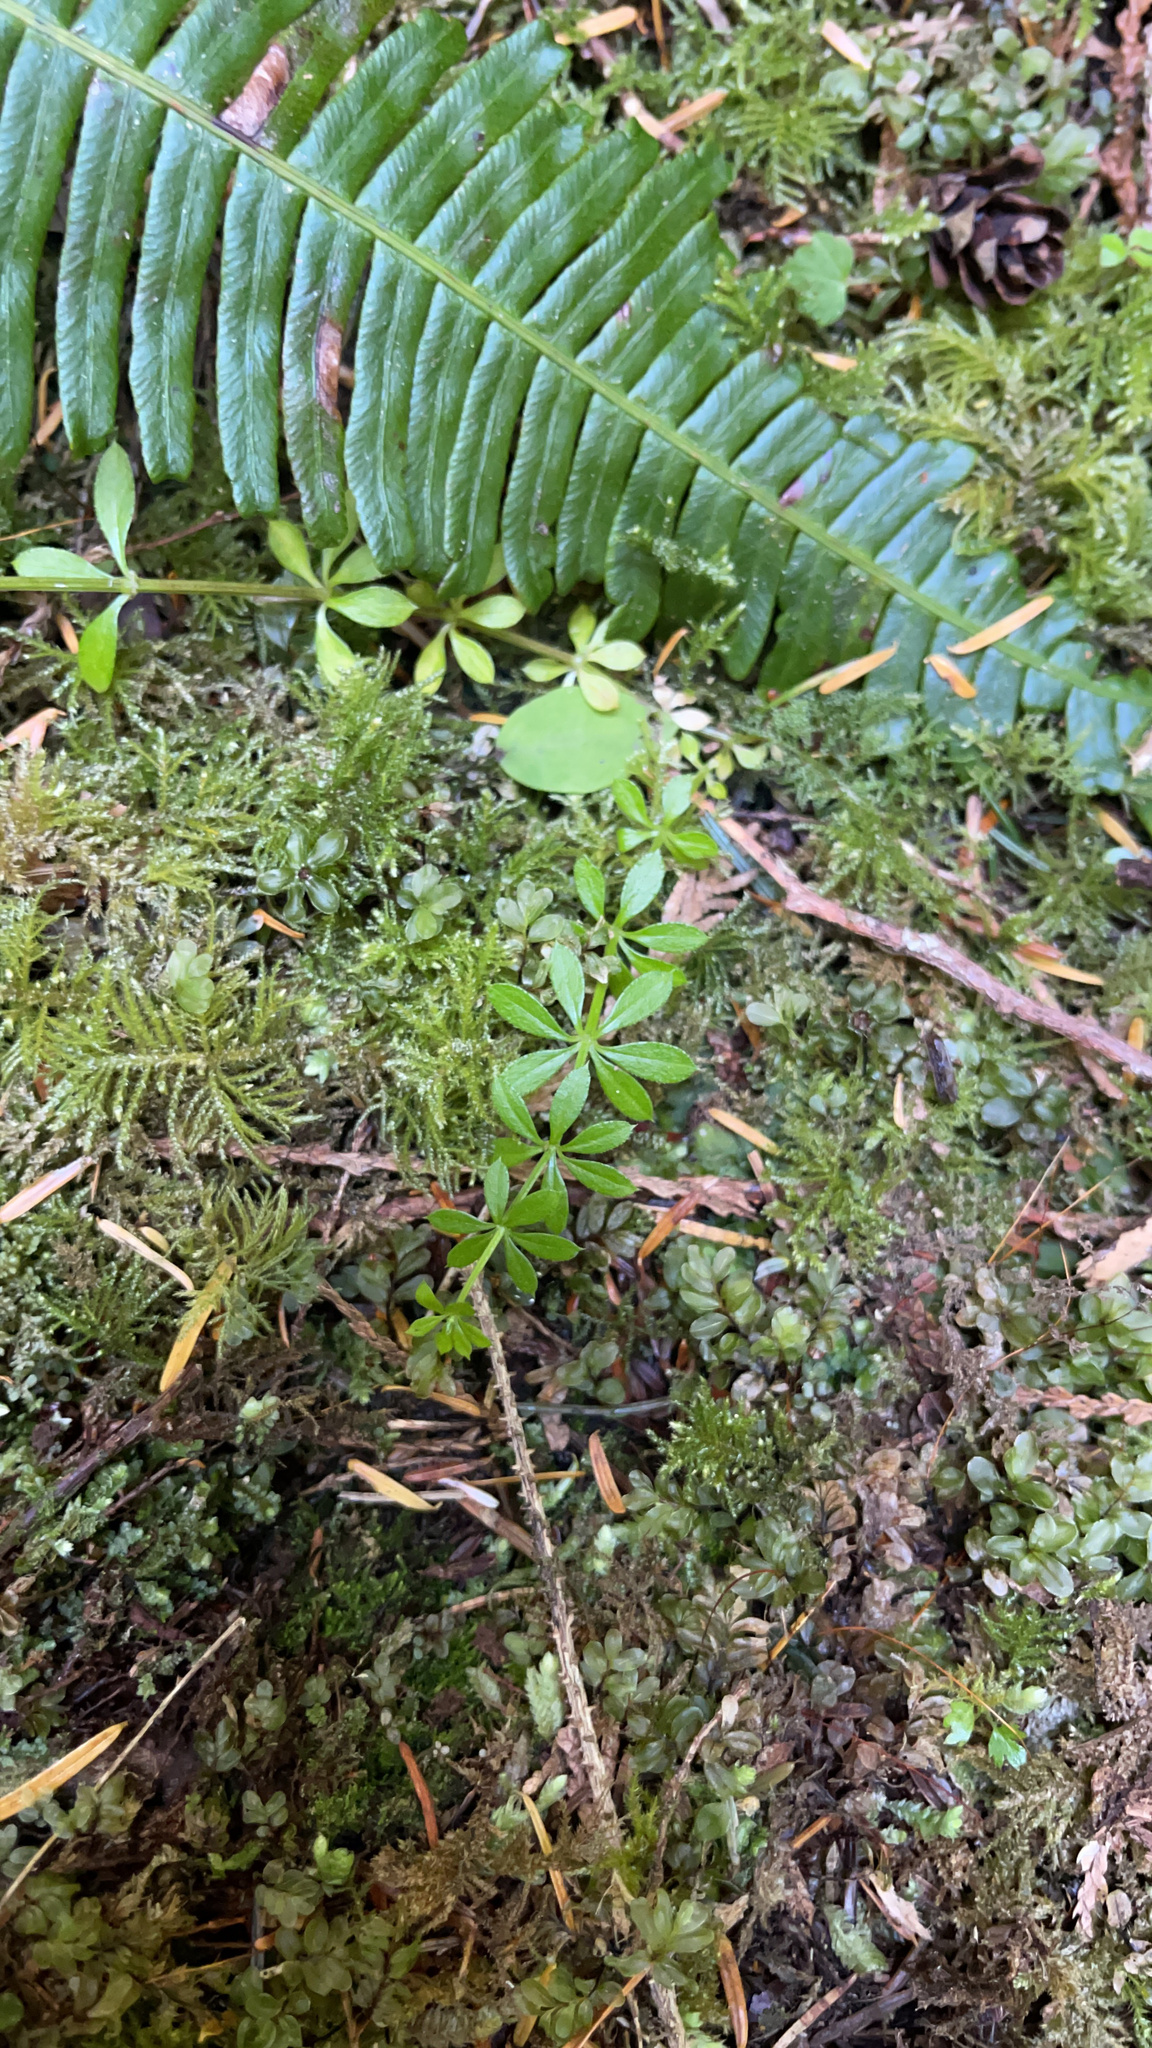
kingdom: Plantae
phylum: Tracheophyta
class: Magnoliopsida
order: Gentianales
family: Rubiaceae
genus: Galium
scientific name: Galium triflorum
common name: Fragrant bedstraw
